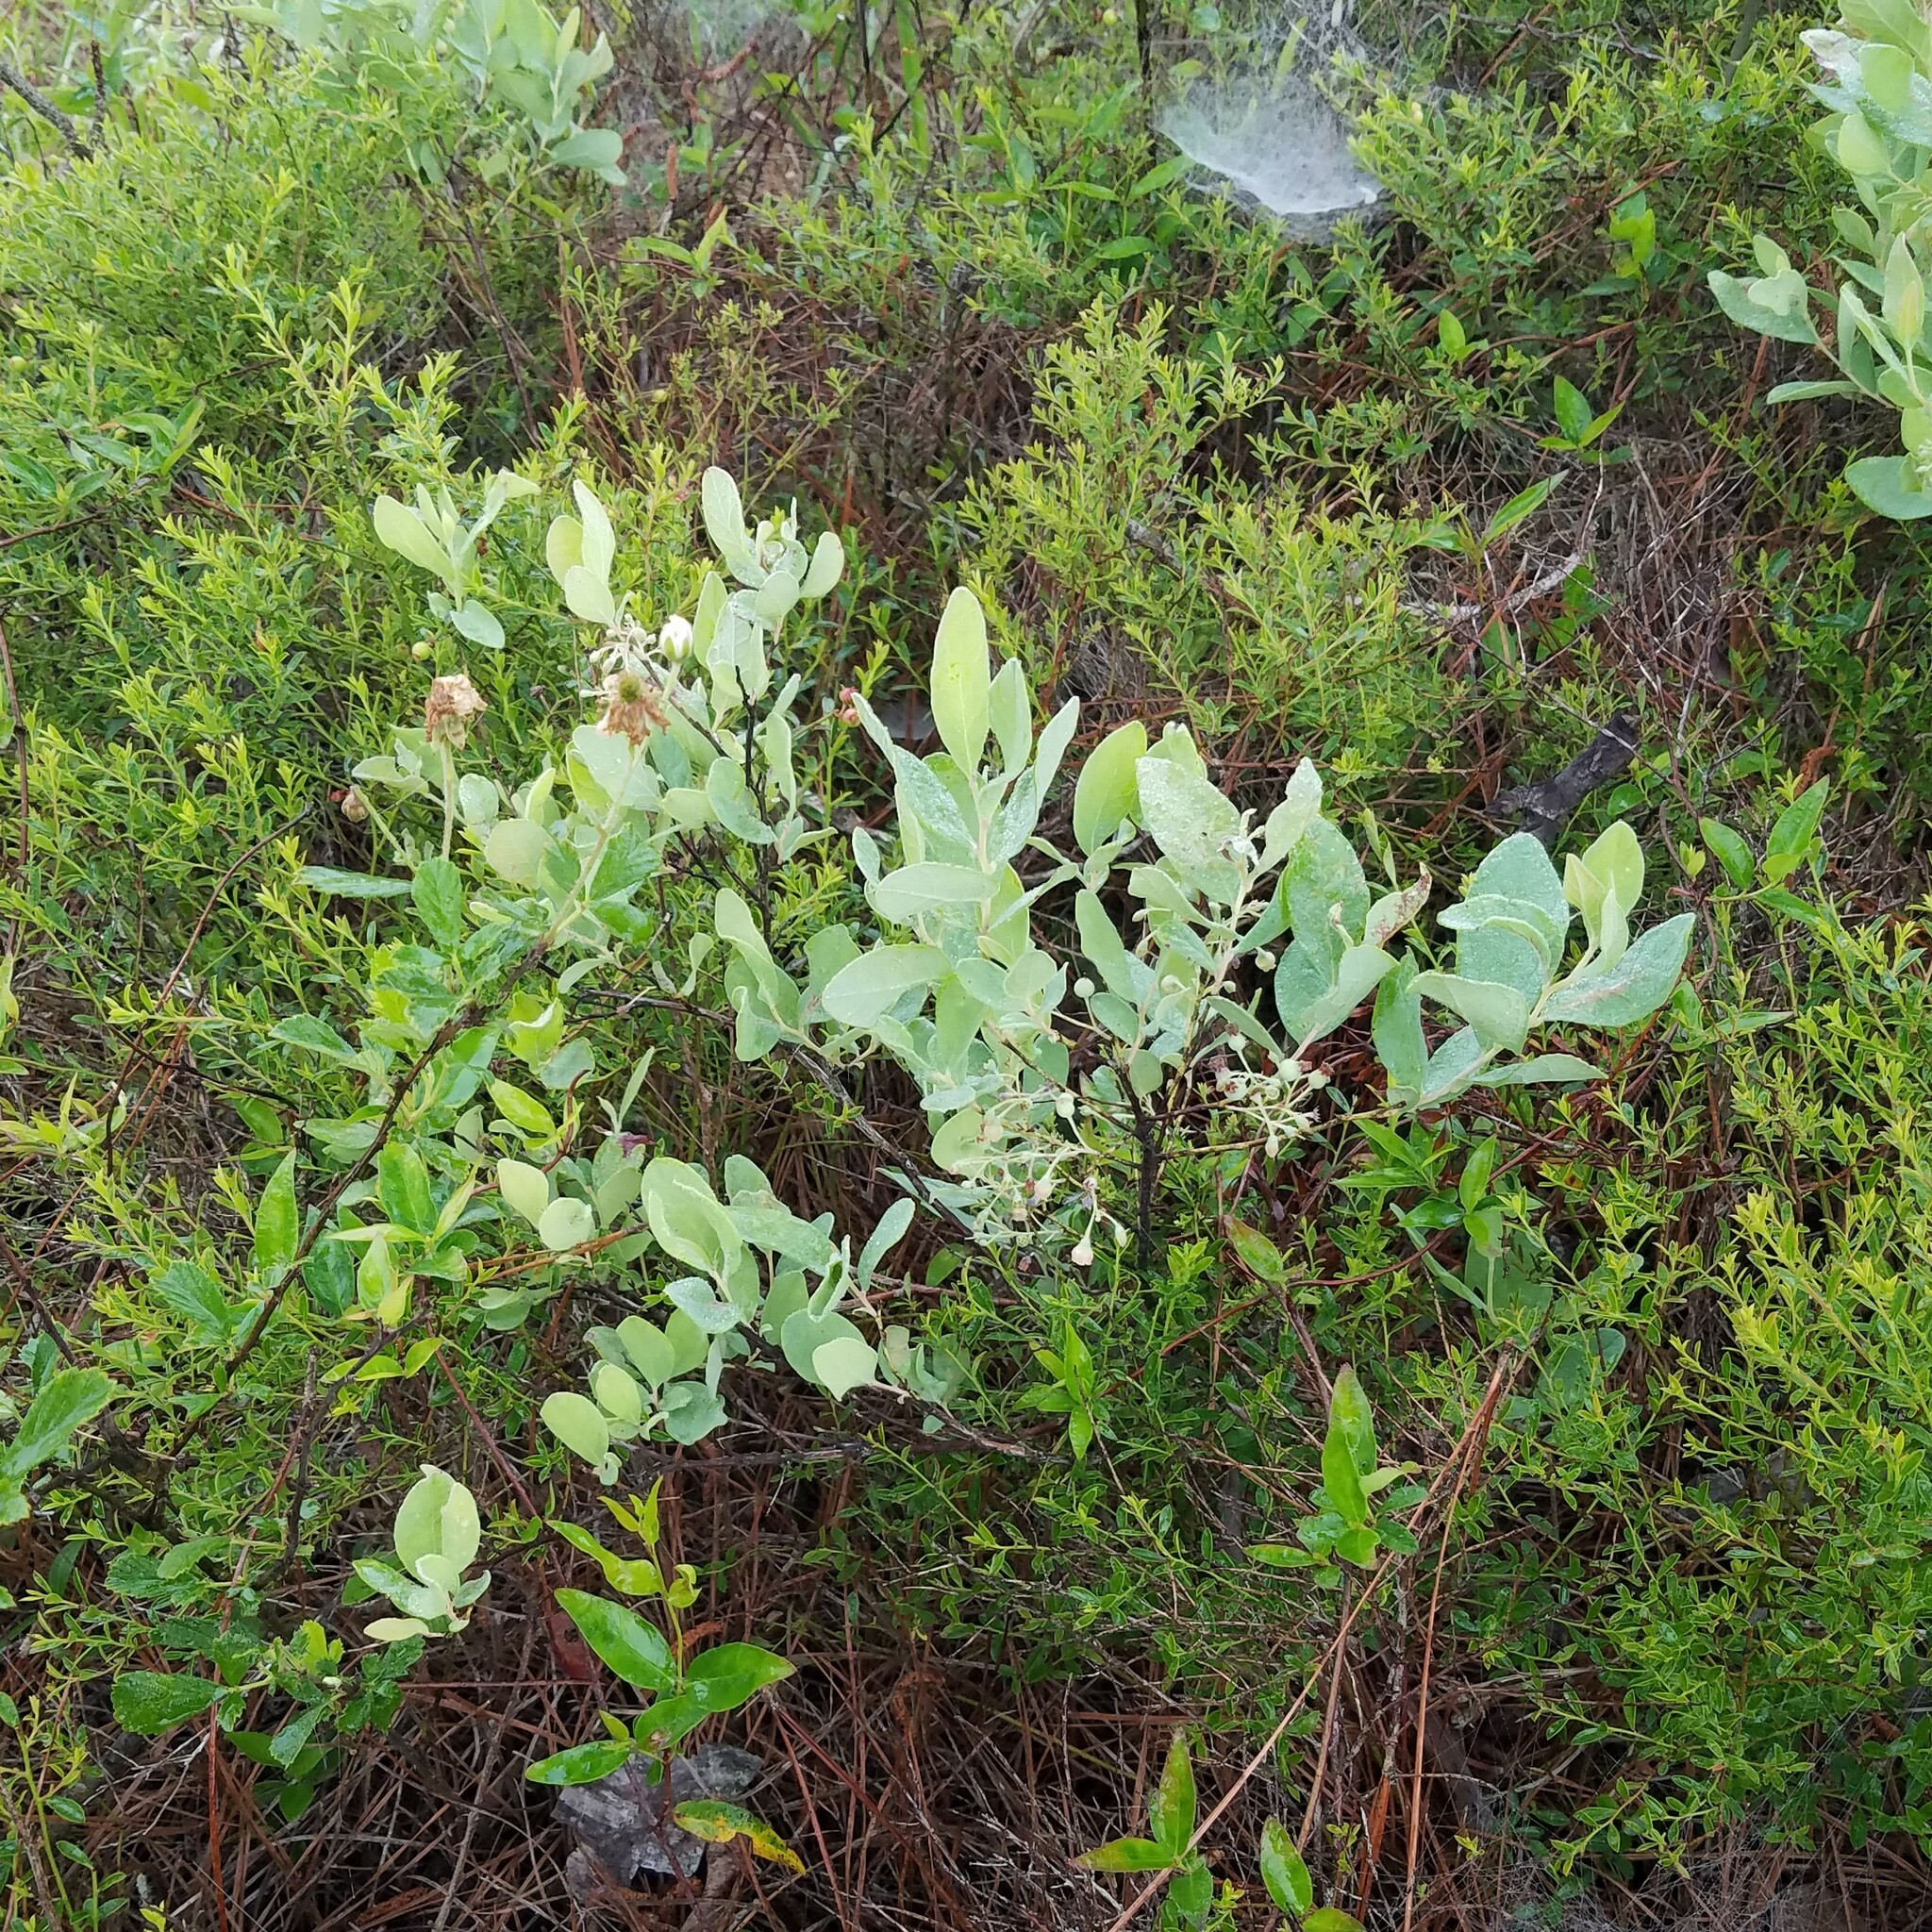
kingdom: Plantae
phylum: Tracheophyta
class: Magnoliopsida
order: Ericales
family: Ericaceae
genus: Gaylussacia
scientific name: Gaylussacia nana
